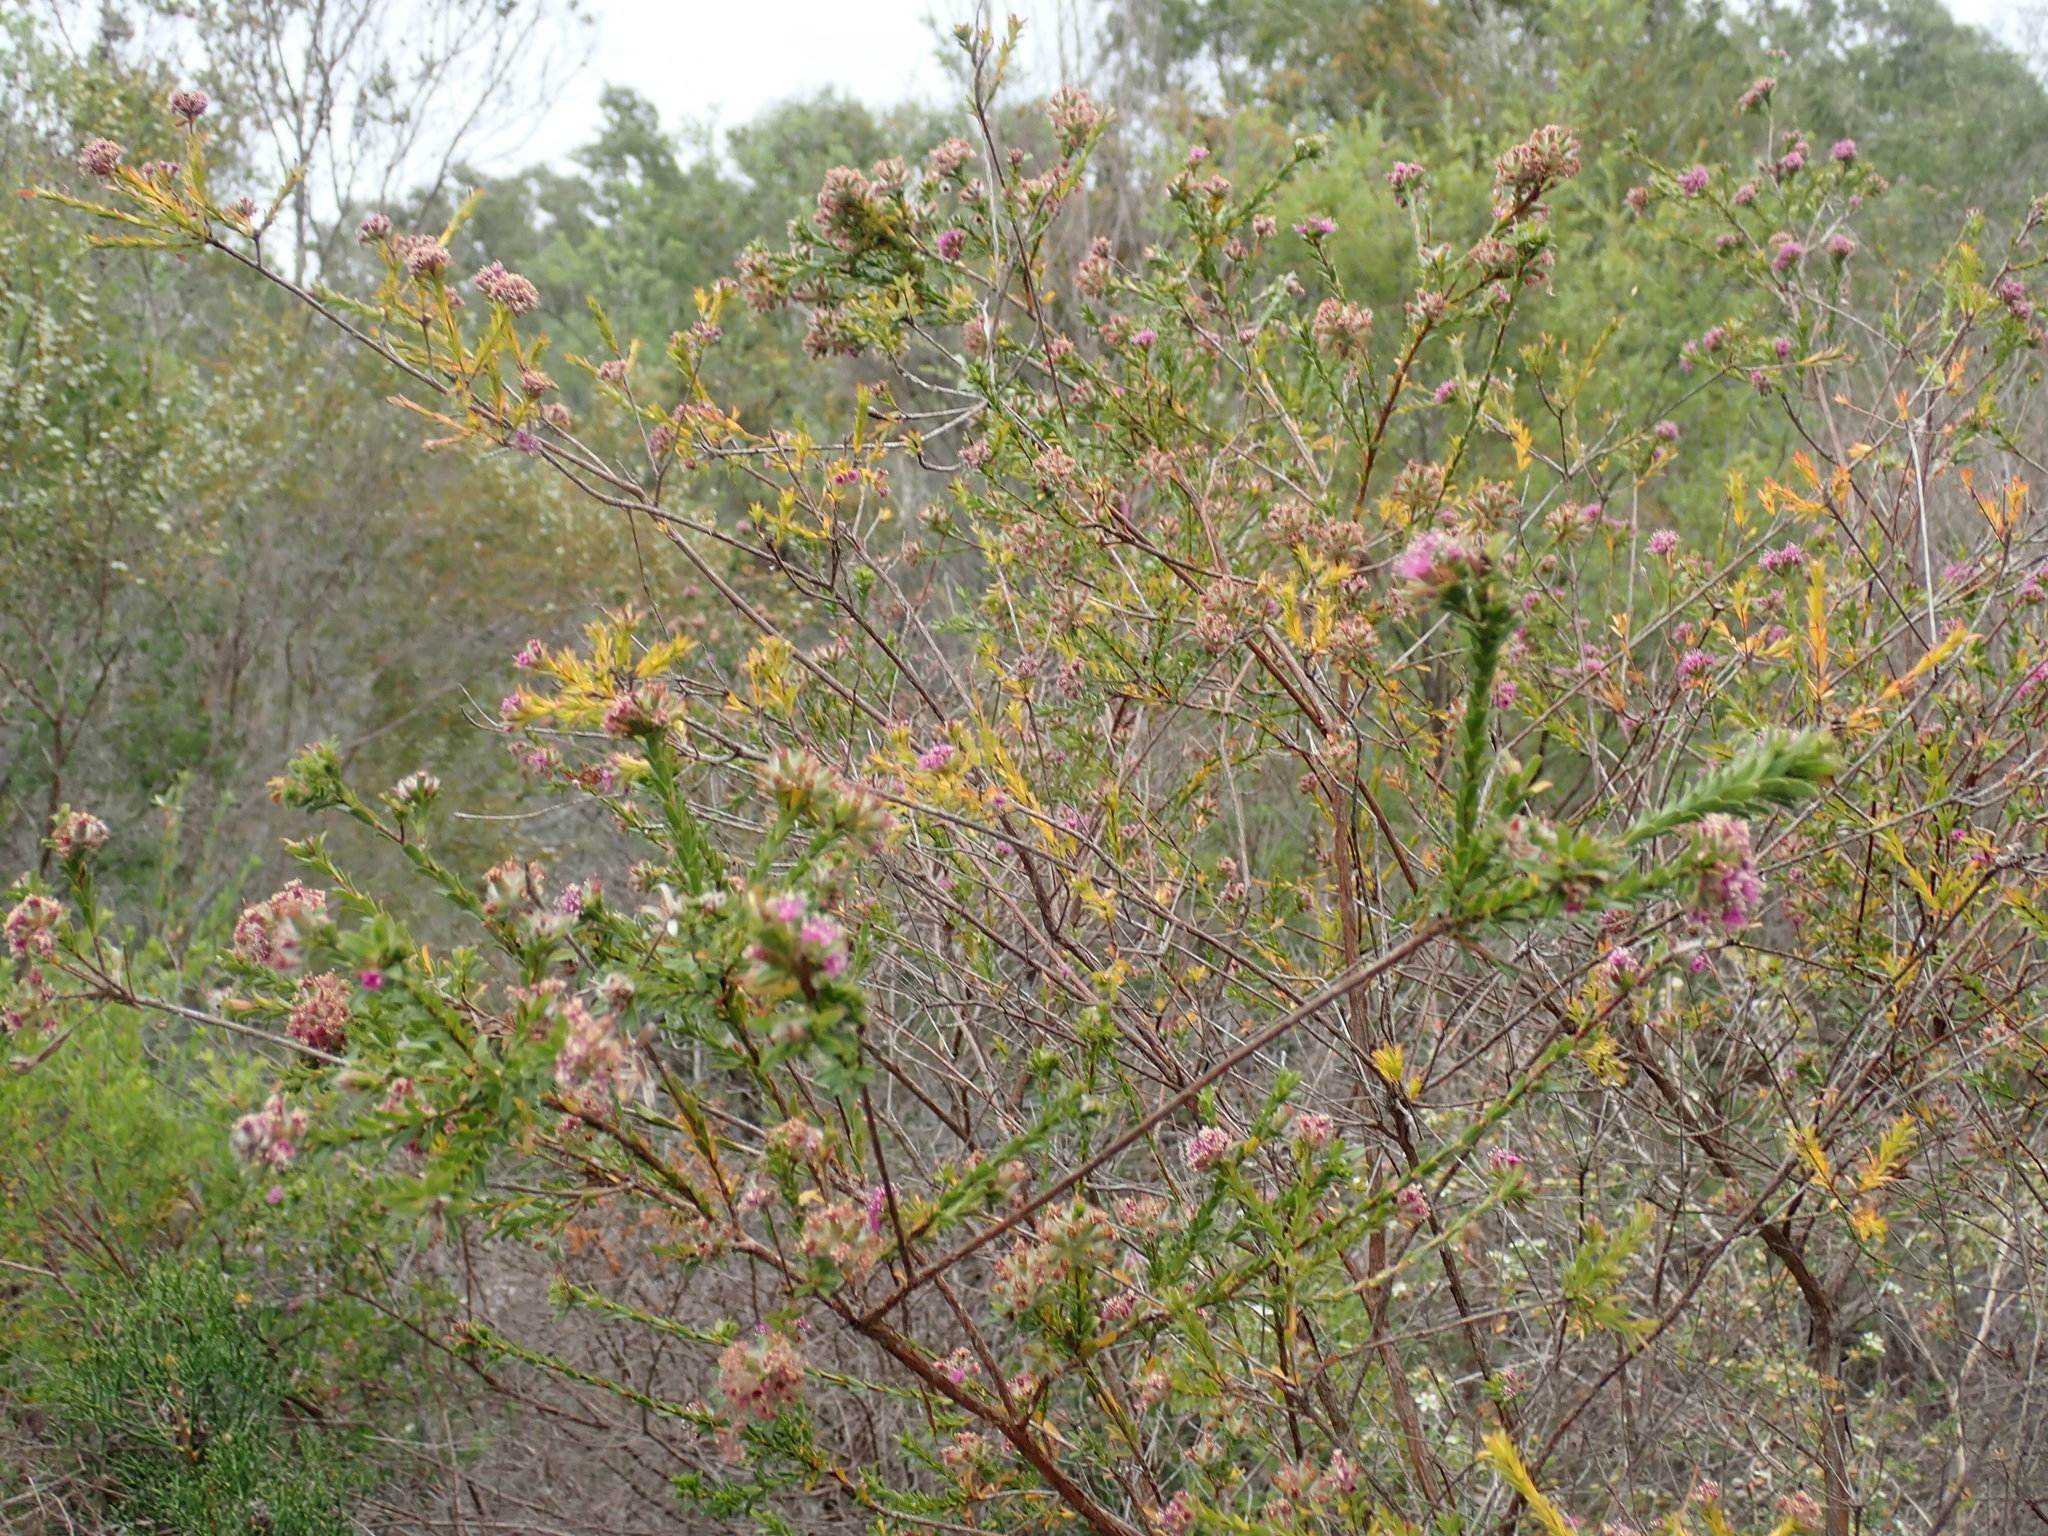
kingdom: Plantae
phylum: Tracheophyta
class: Magnoliopsida
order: Myrtales
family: Myrtaceae
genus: Kunzea
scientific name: Kunzea capitata
